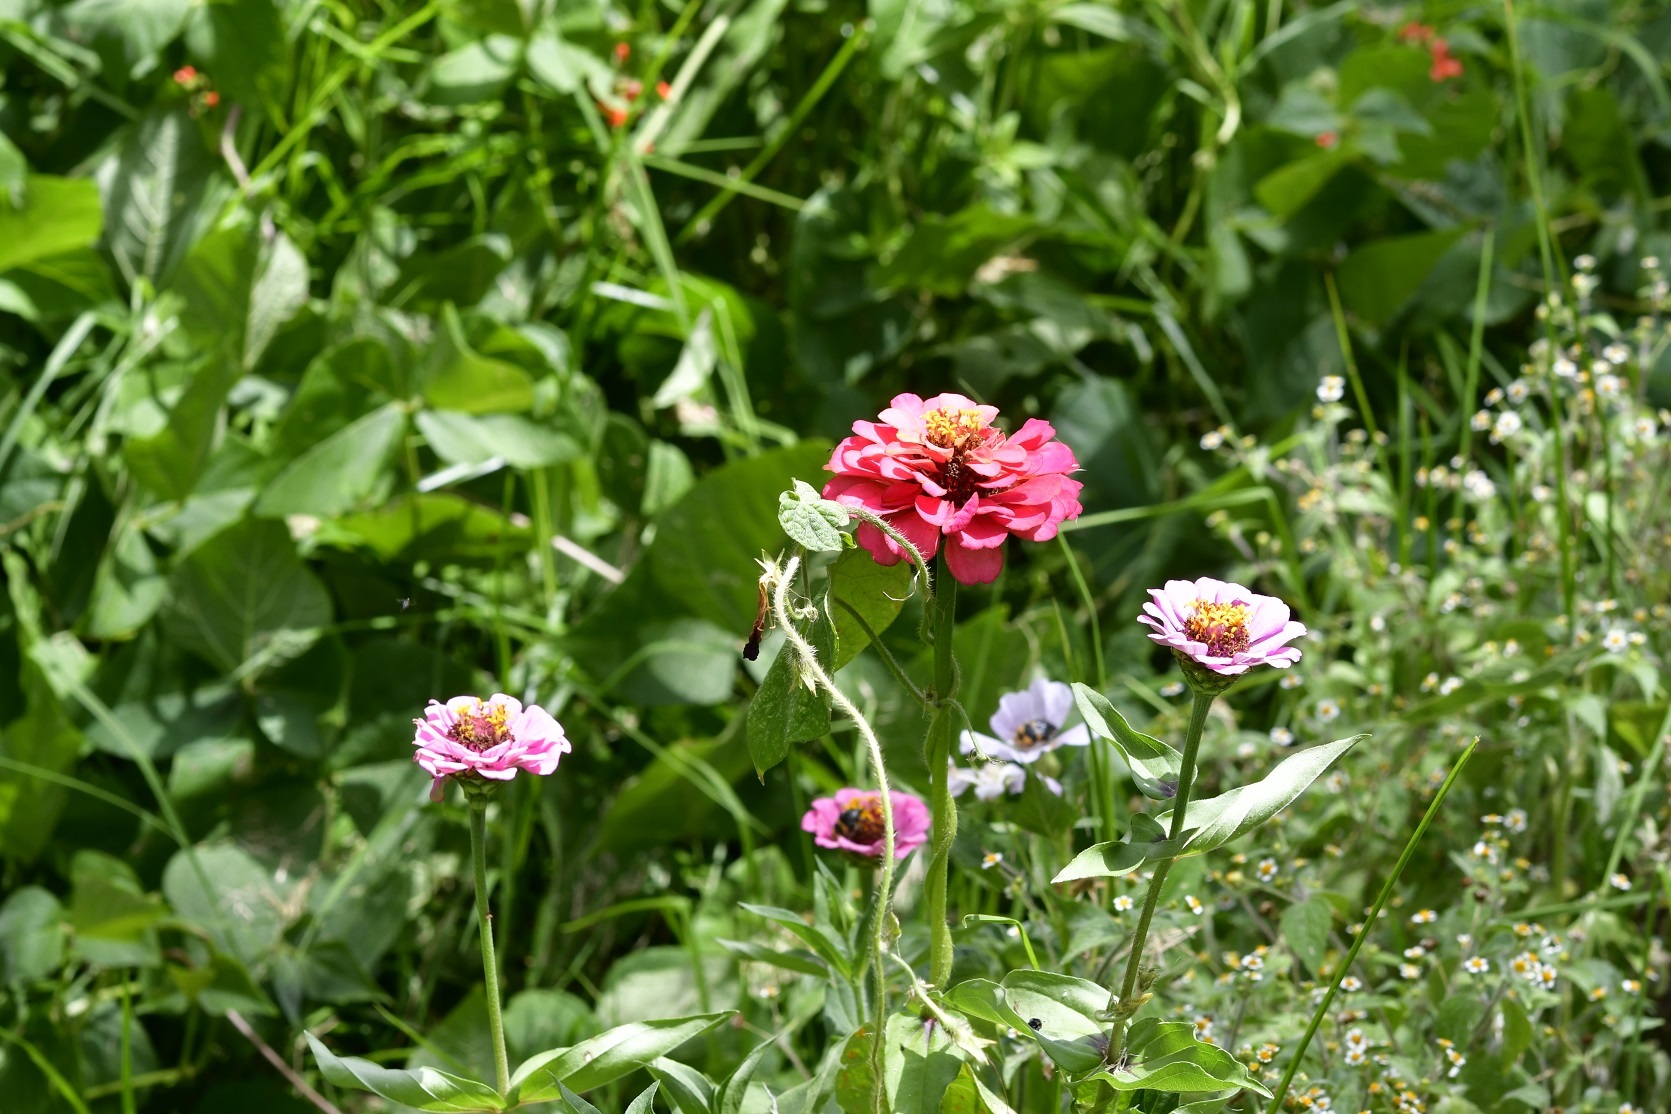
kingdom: Plantae
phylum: Tracheophyta
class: Magnoliopsida
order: Asterales
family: Asteraceae
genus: Zinnia
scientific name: Zinnia elegans
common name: Youth-and-age
